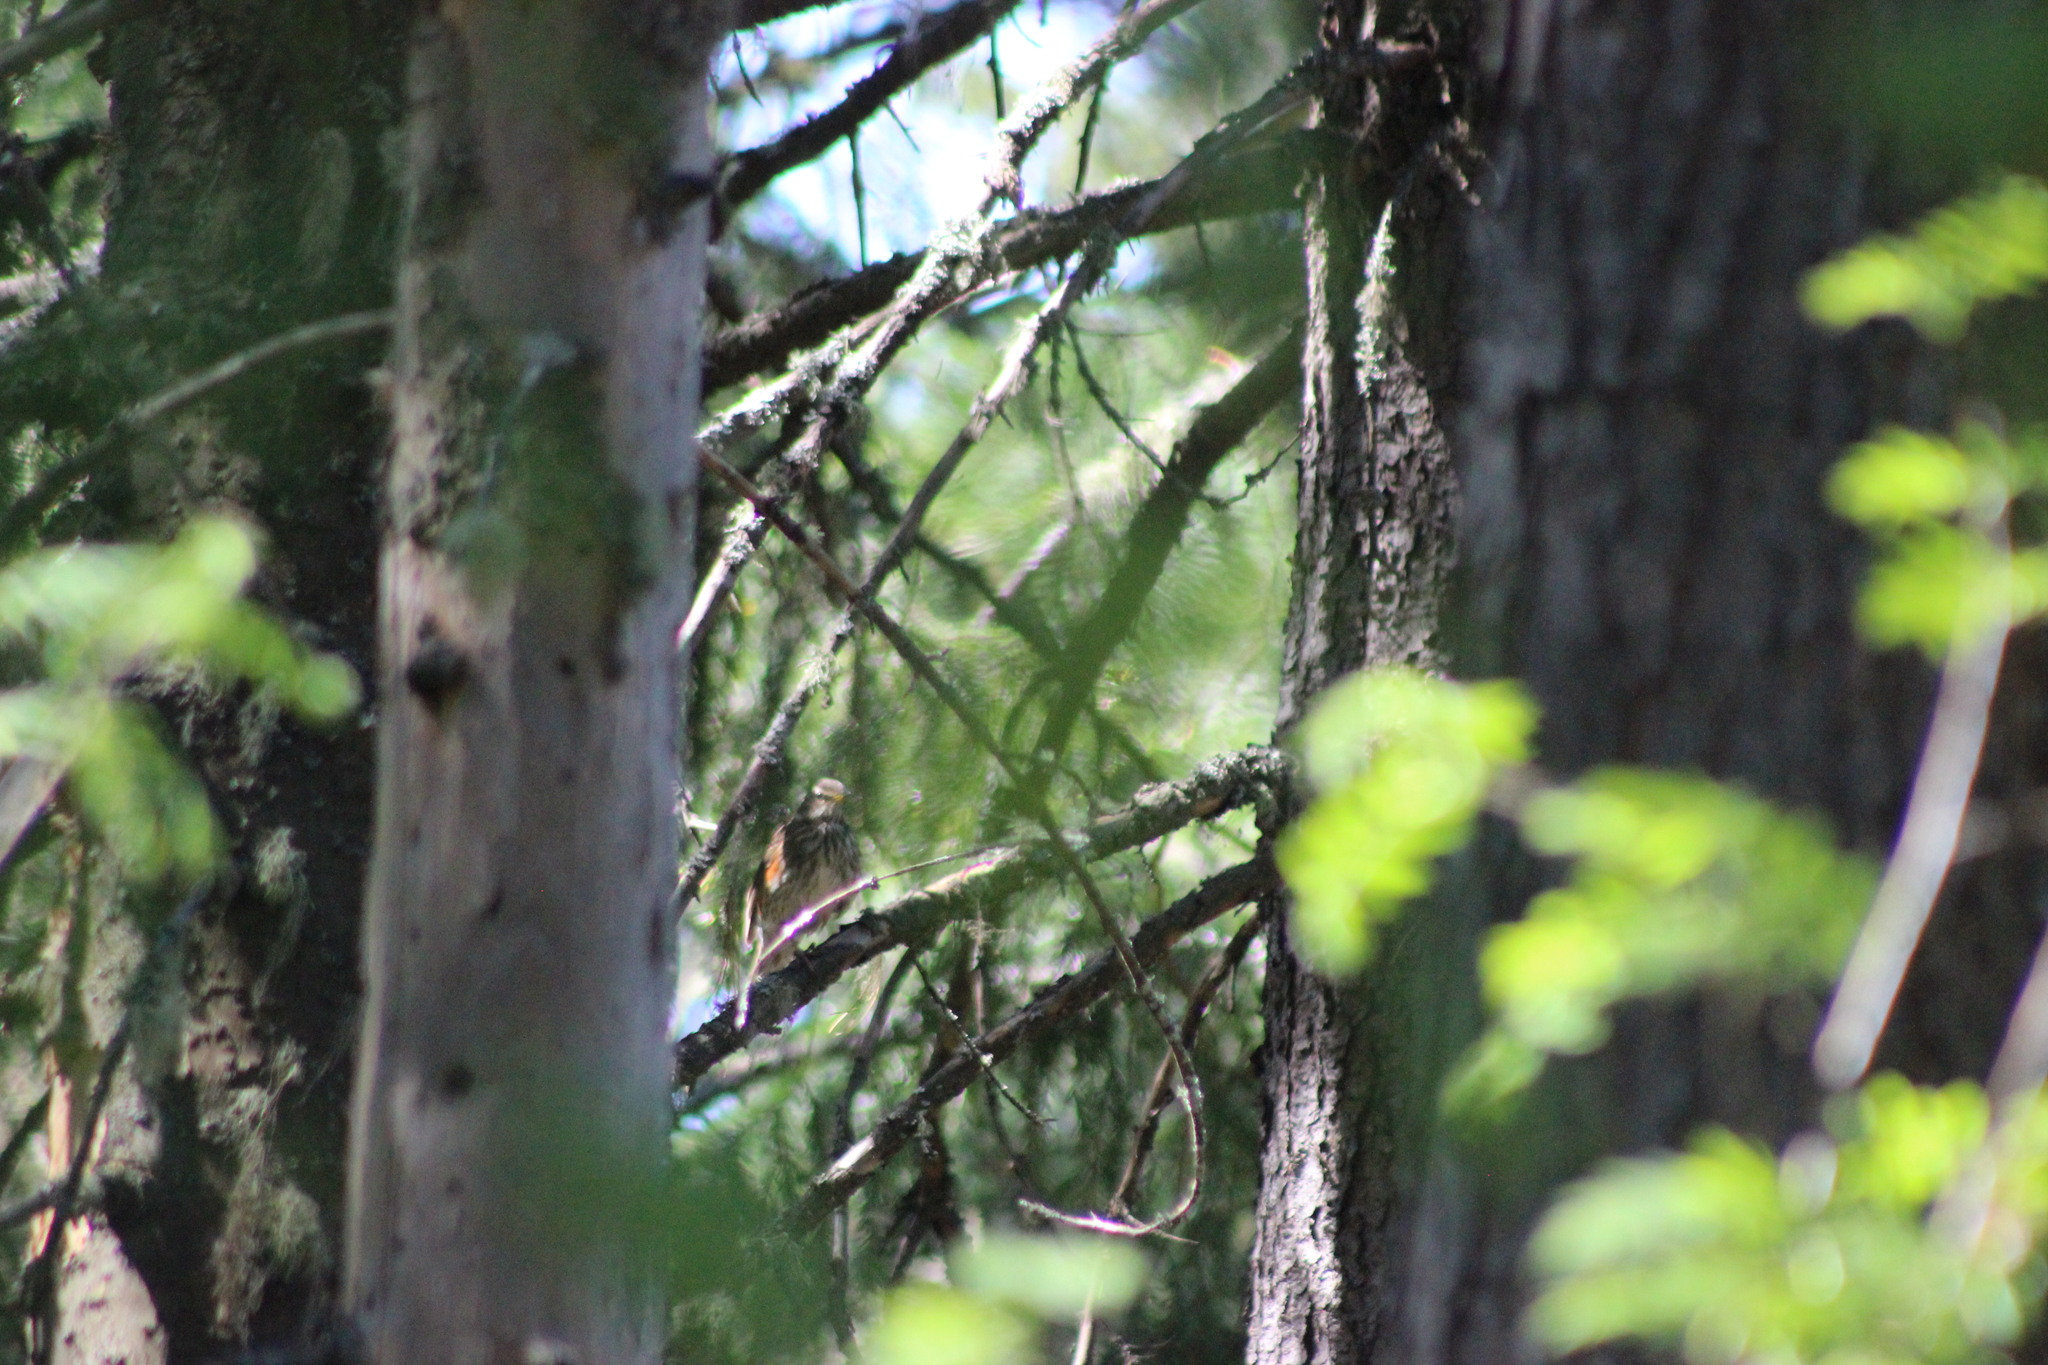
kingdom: Animalia
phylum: Chordata
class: Aves
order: Passeriformes
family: Turdidae
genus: Turdus
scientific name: Turdus iliacus
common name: Redwing
